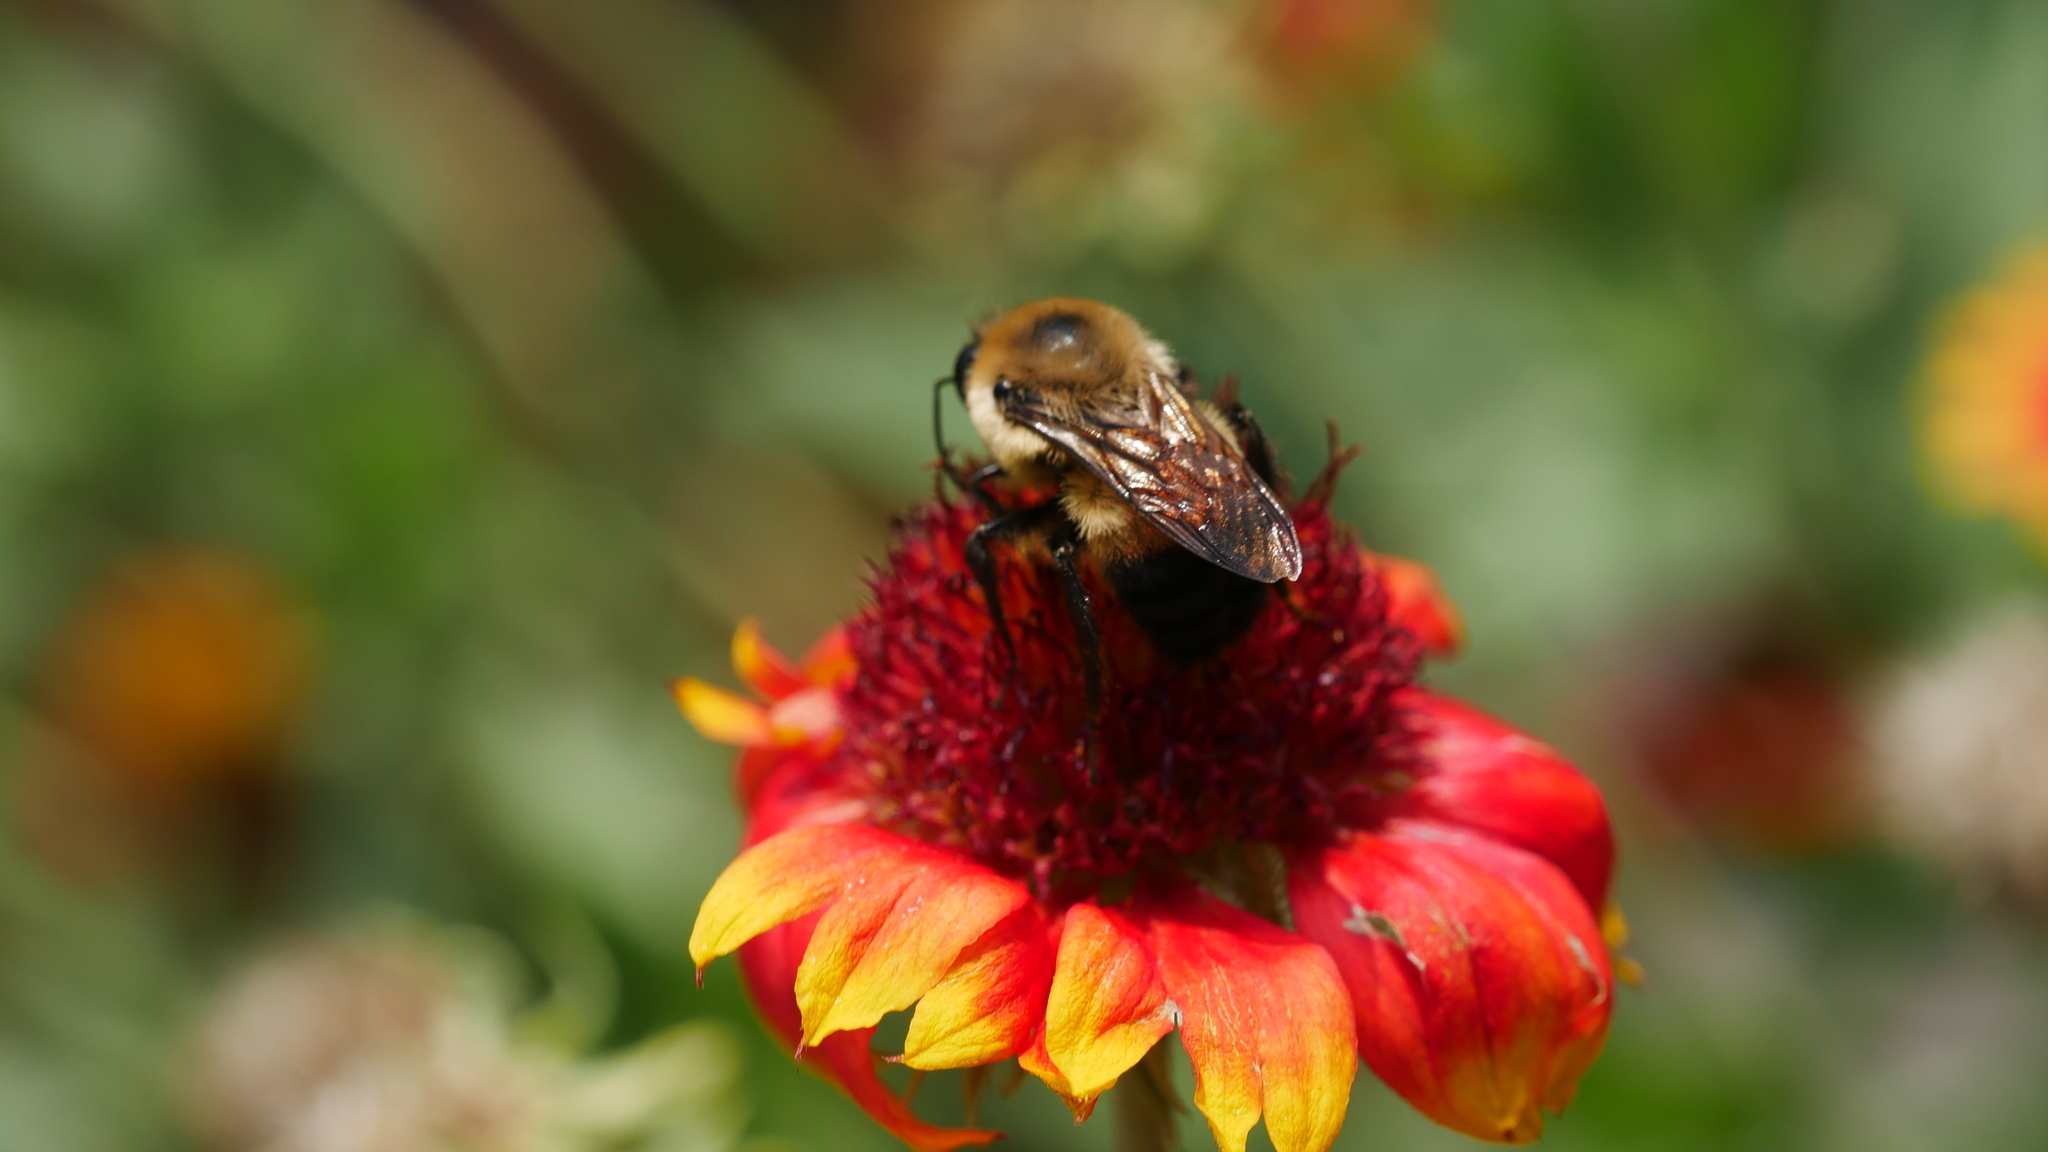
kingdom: Animalia
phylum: Arthropoda
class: Insecta
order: Hymenoptera
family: Apidae
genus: Bombus
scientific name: Bombus griseocollis
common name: Brown-belted bumble bee
